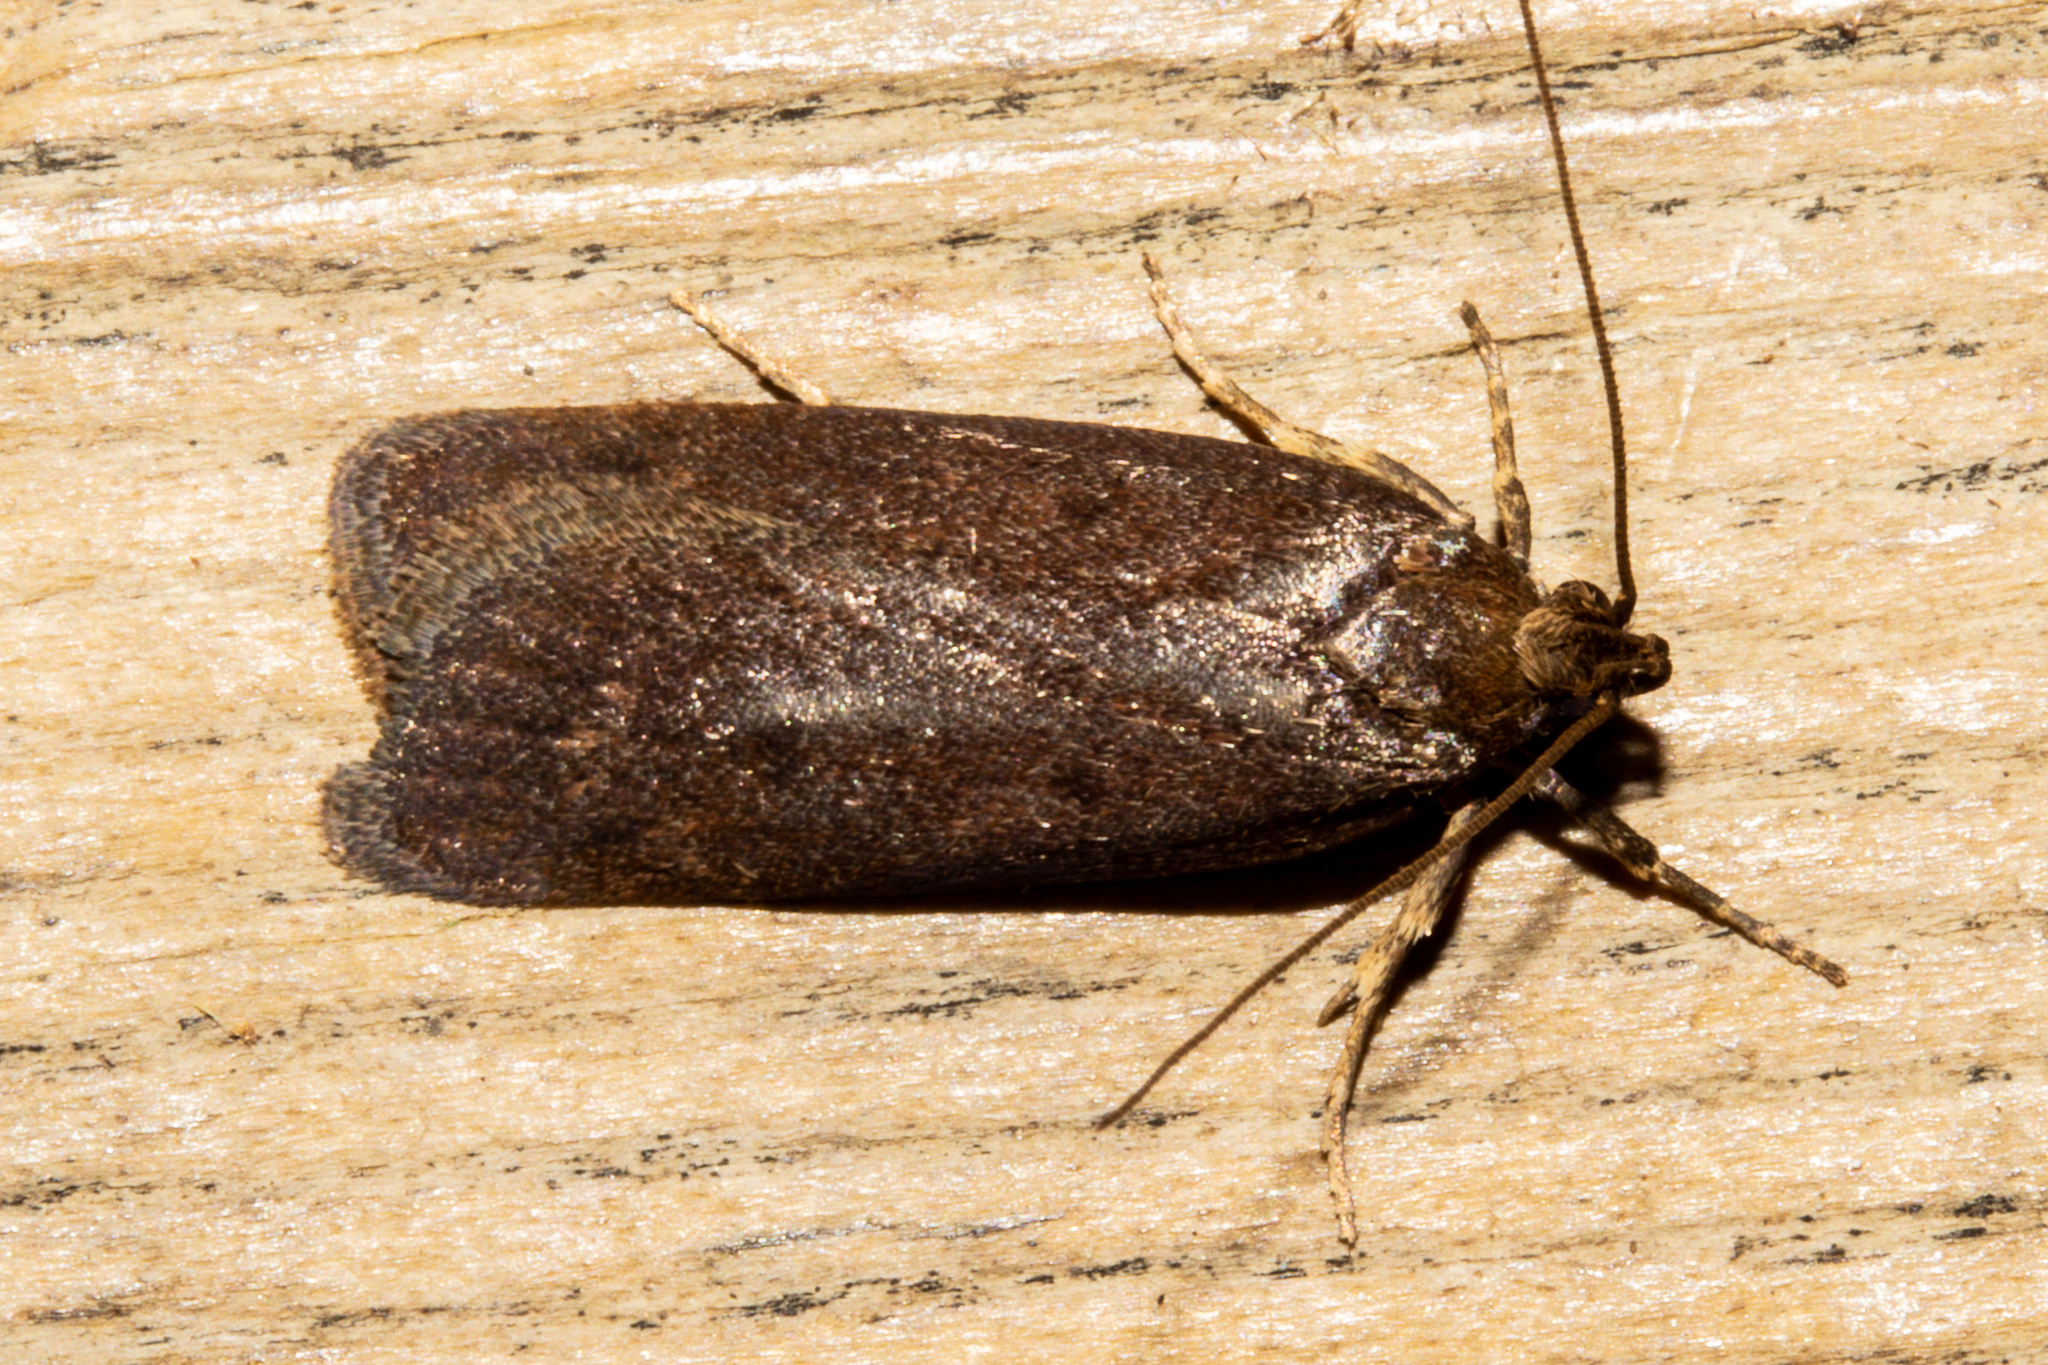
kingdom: Animalia
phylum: Arthropoda
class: Insecta
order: Lepidoptera
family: Depressariidae
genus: Phaeosaces
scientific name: Phaeosaces apocrypta
